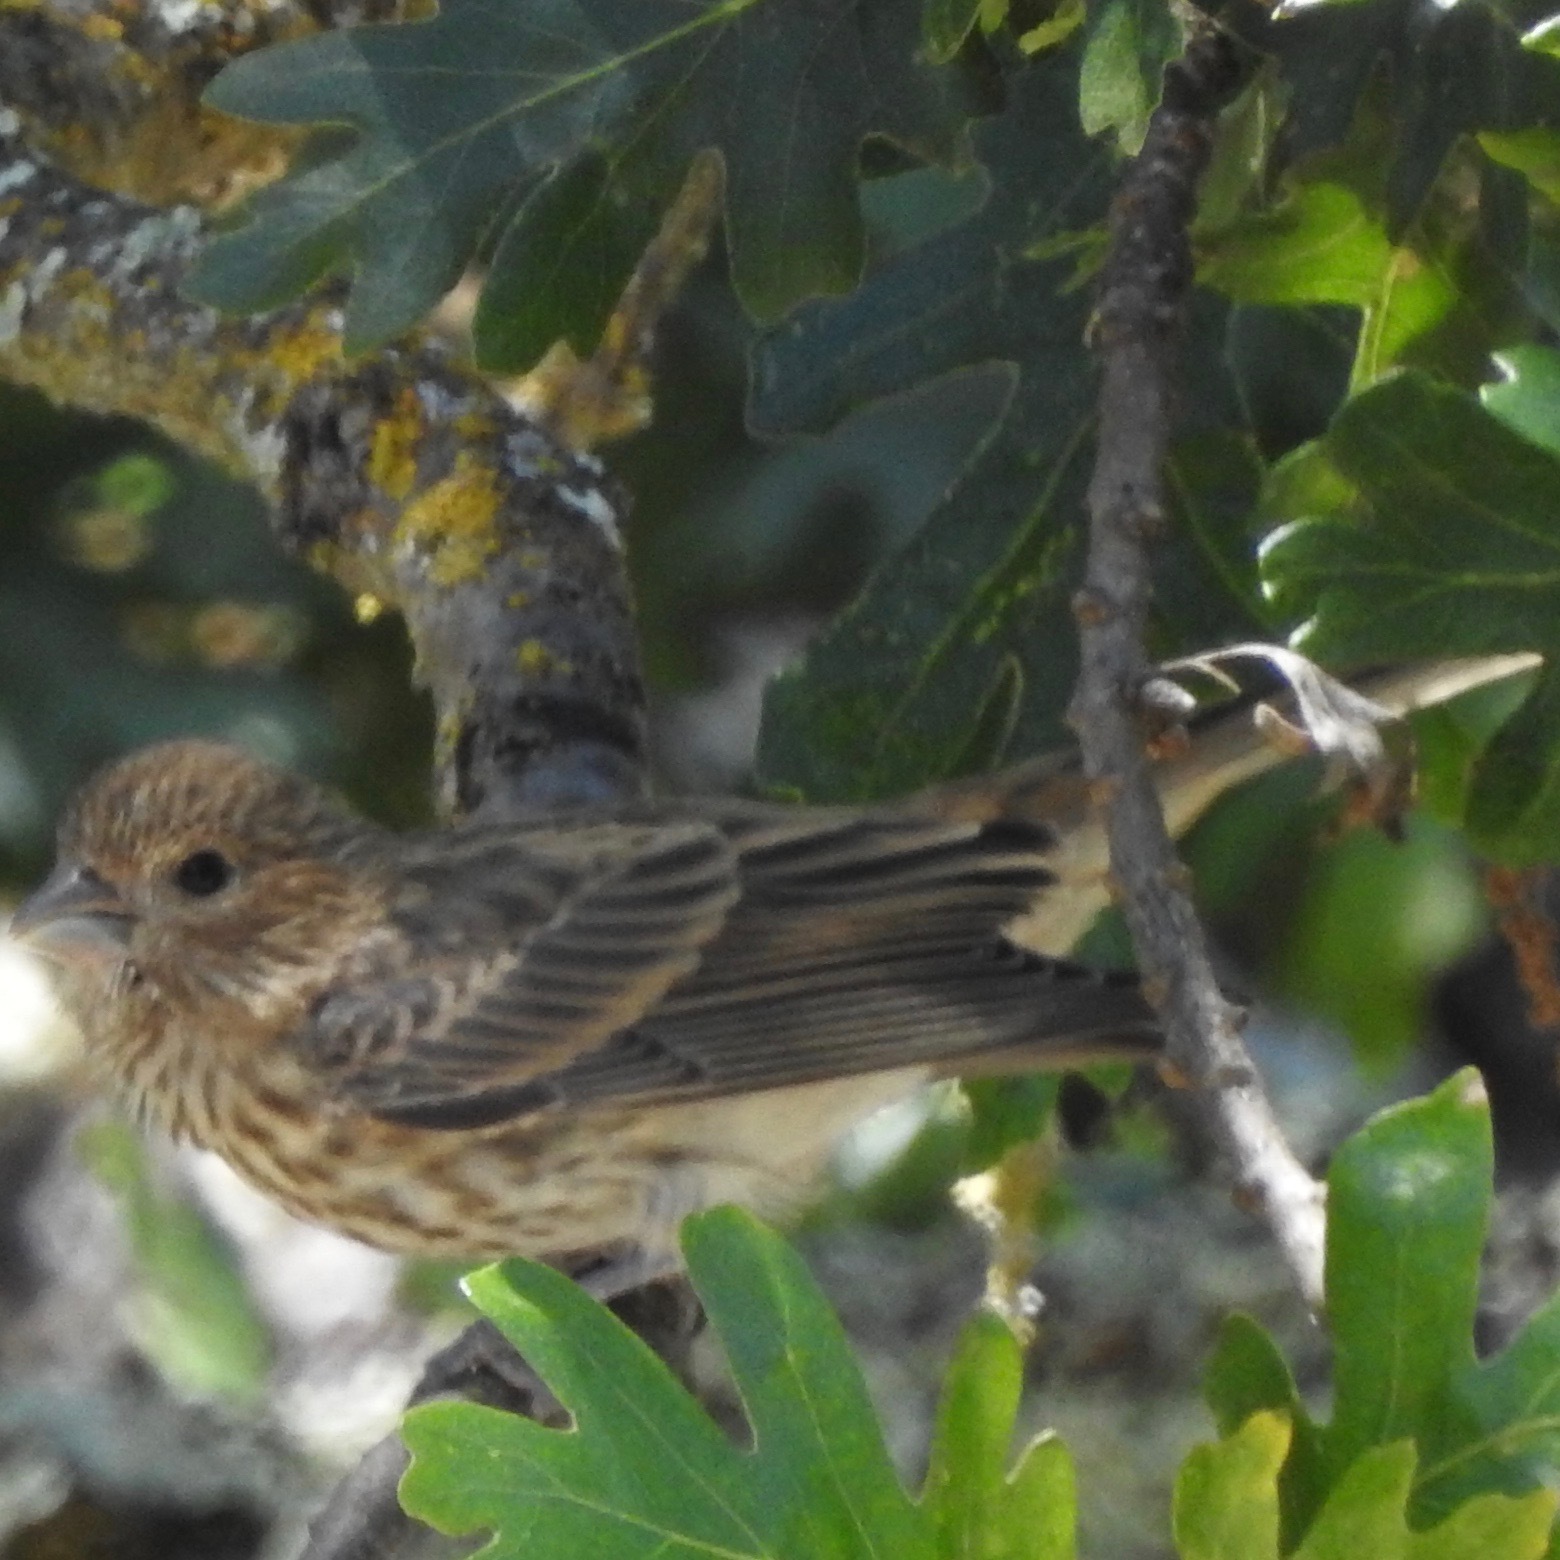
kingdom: Animalia
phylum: Chordata
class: Aves
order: Passeriformes
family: Fringillidae
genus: Haemorhous
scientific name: Haemorhous mexicanus
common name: House finch
